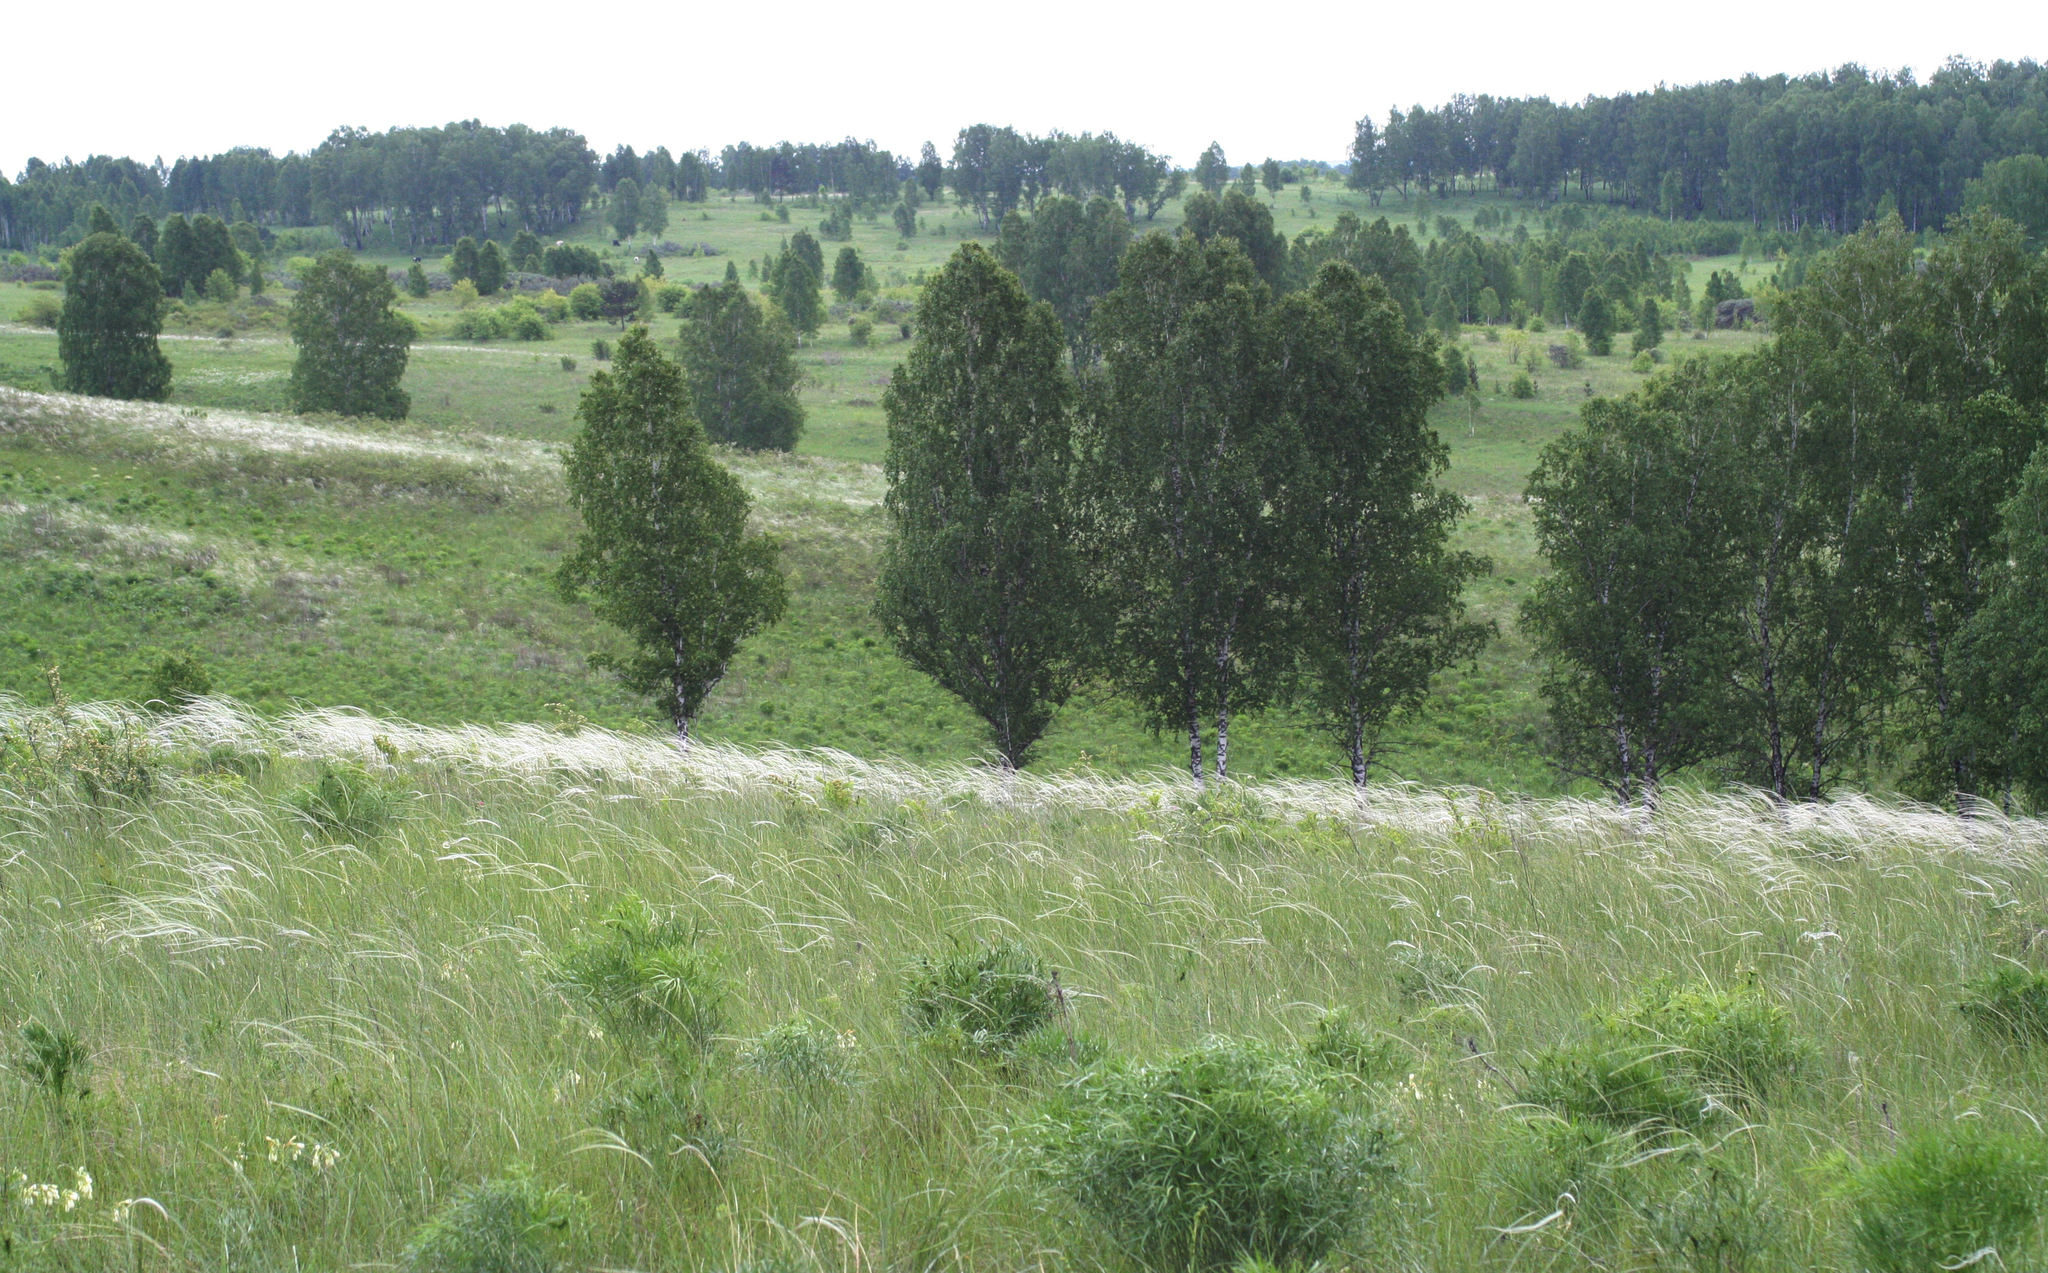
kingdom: Plantae
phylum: Tracheophyta
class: Liliopsida
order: Poales
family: Poaceae
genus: Stipa
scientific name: Stipa pennata
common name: European feather grass
